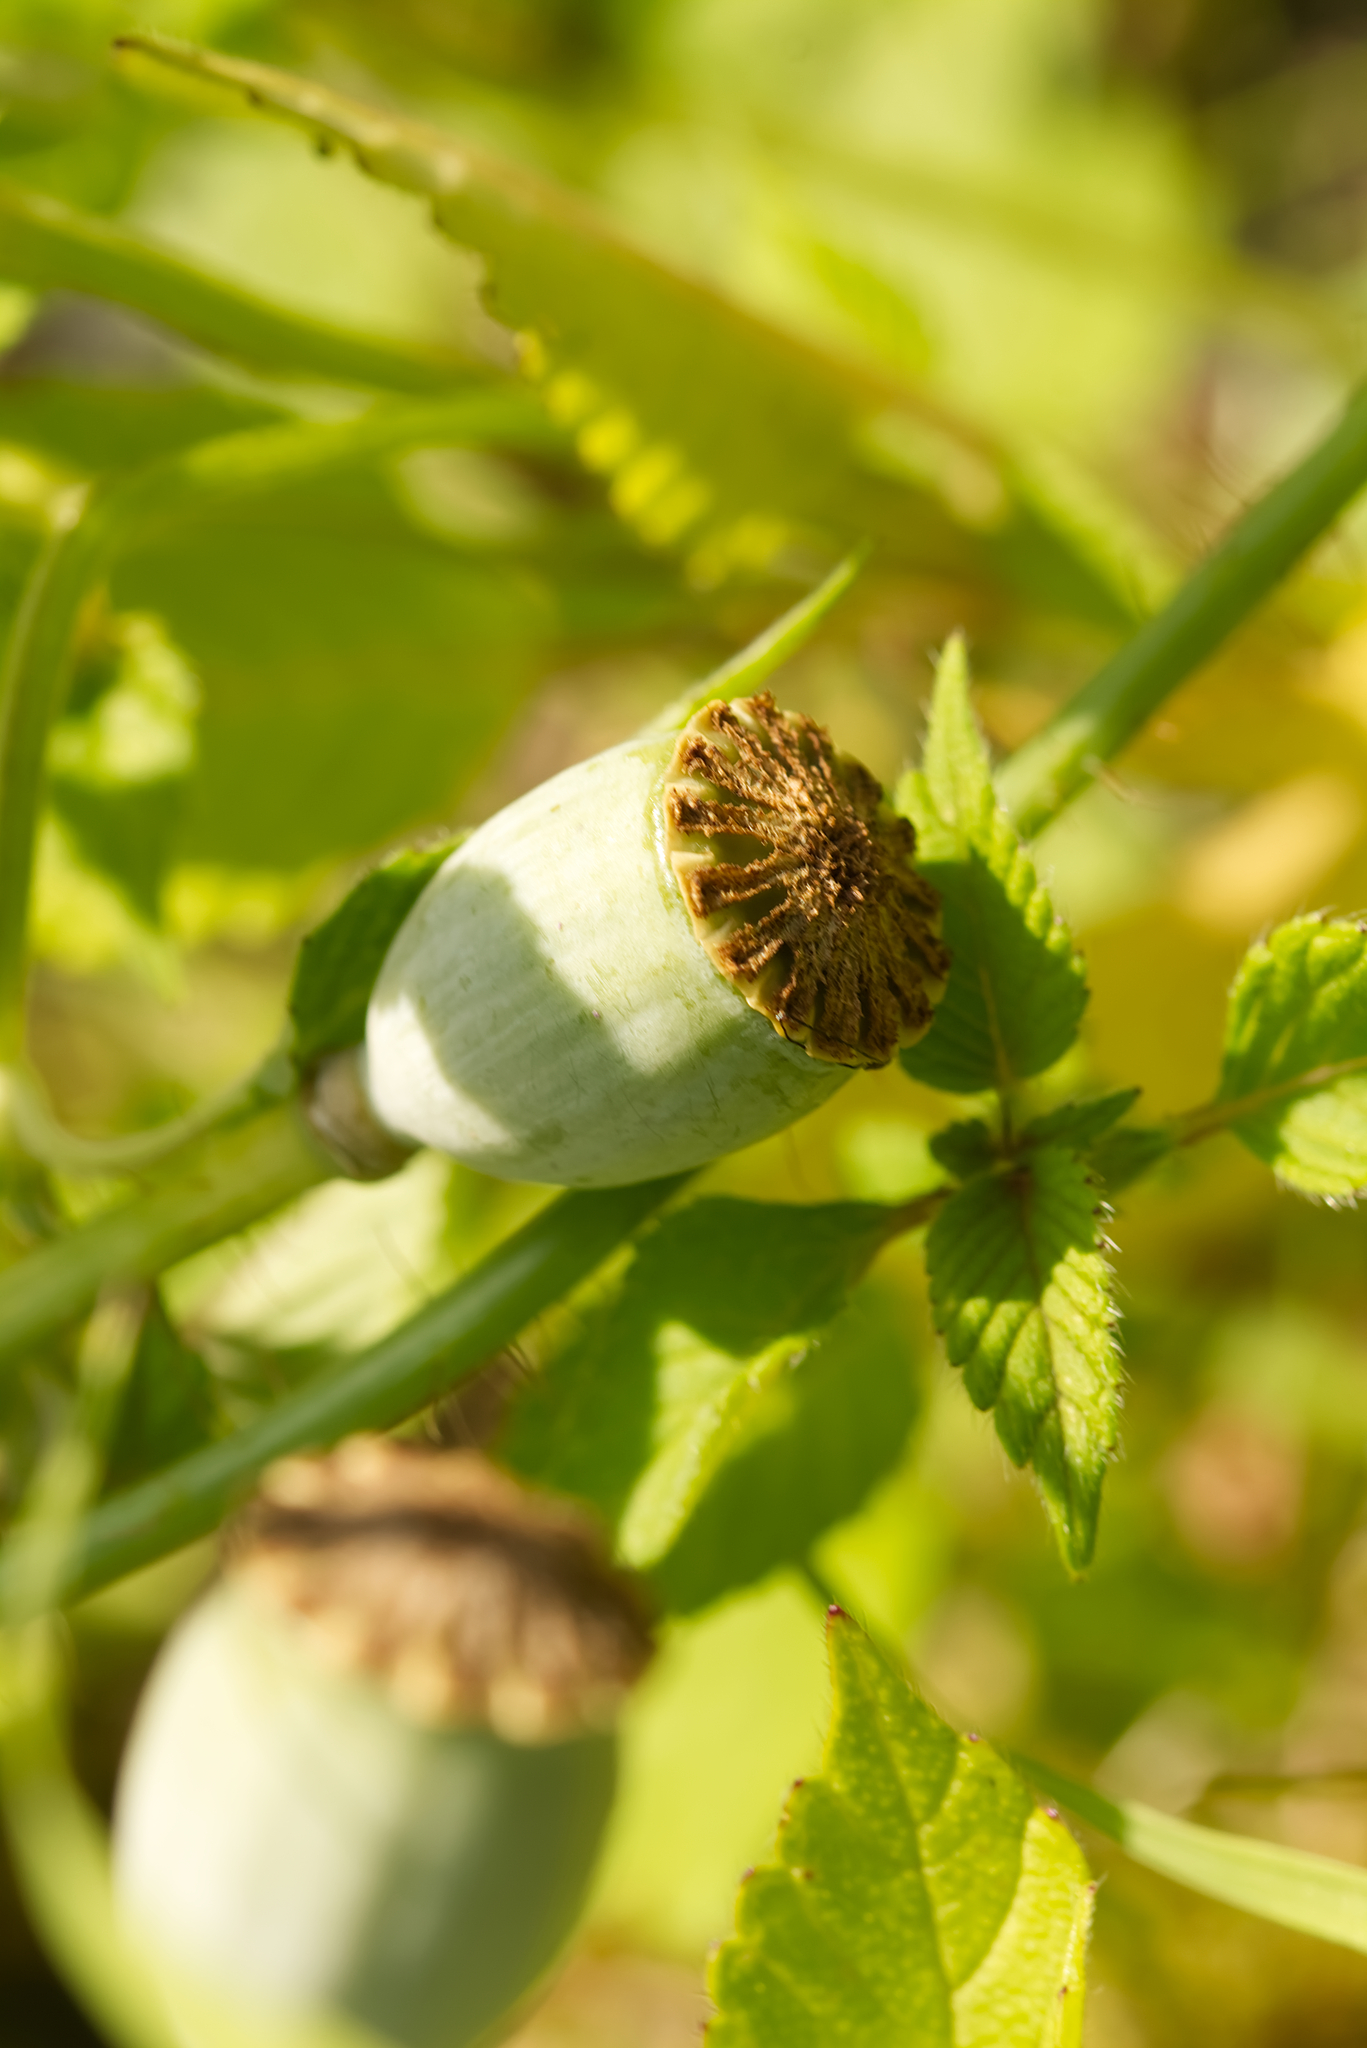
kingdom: Plantae
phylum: Tracheophyta
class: Magnoliopsida
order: Ranunculales
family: Papaveraceae
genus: Papaver
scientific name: Papaver rhoeas
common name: Corn poppy
